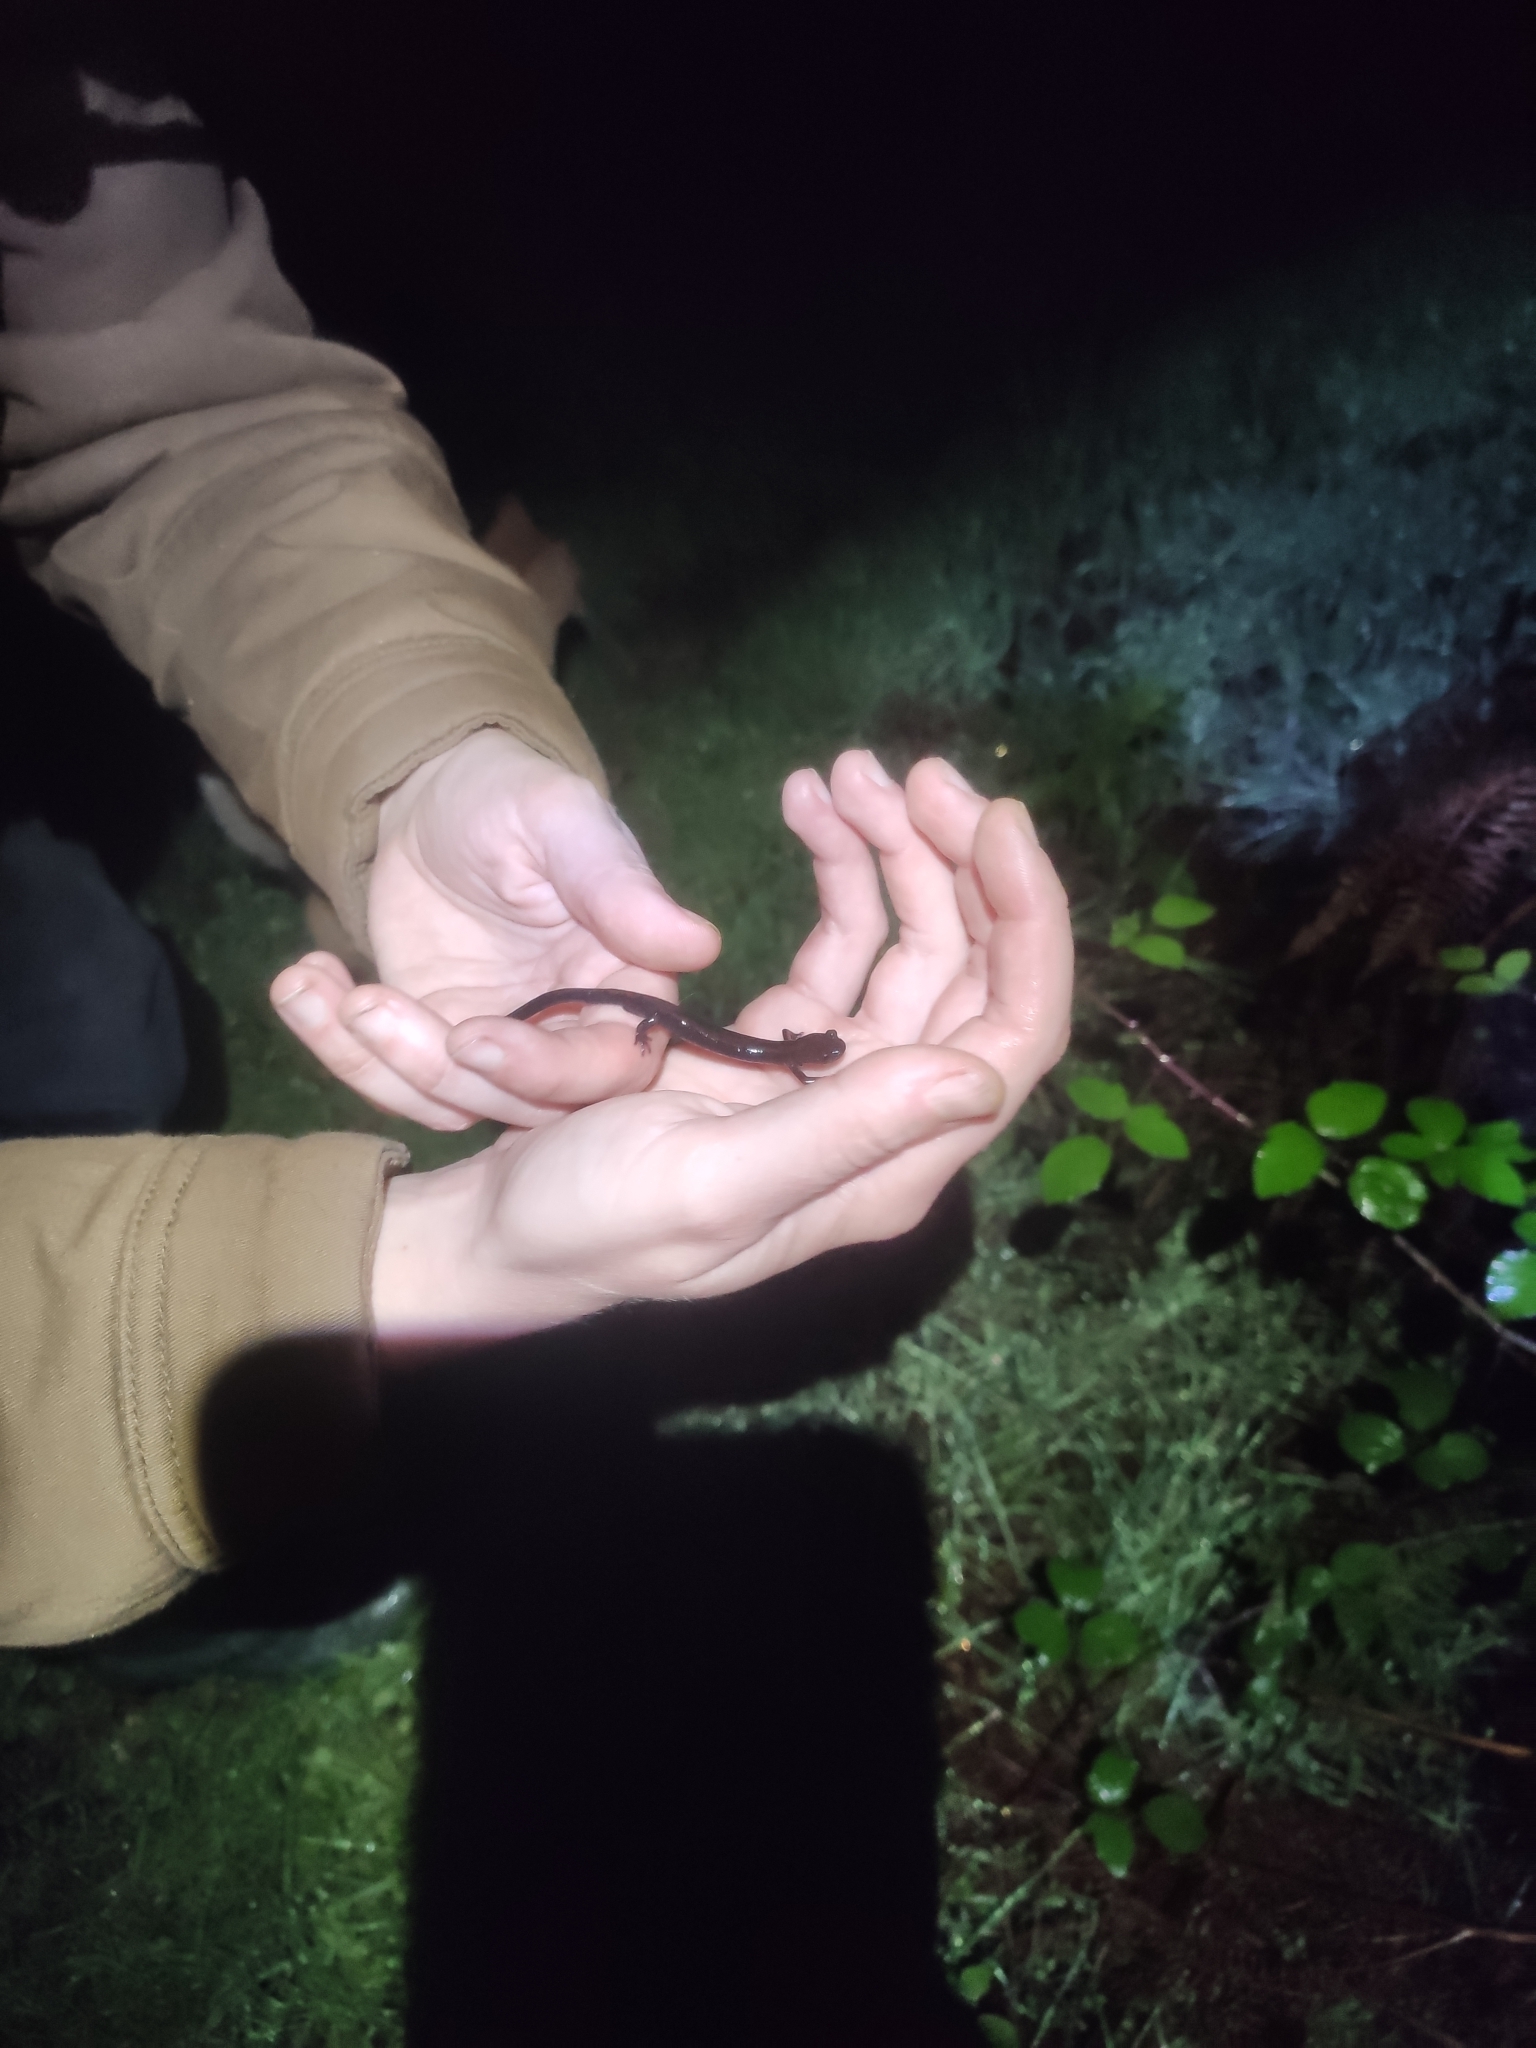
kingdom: Animalia
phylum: Chordata
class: Amphibia
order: Caudata
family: Salamandridae
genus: Chioglossa
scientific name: Chioglossa lusitanica
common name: Gold-striped salamander
